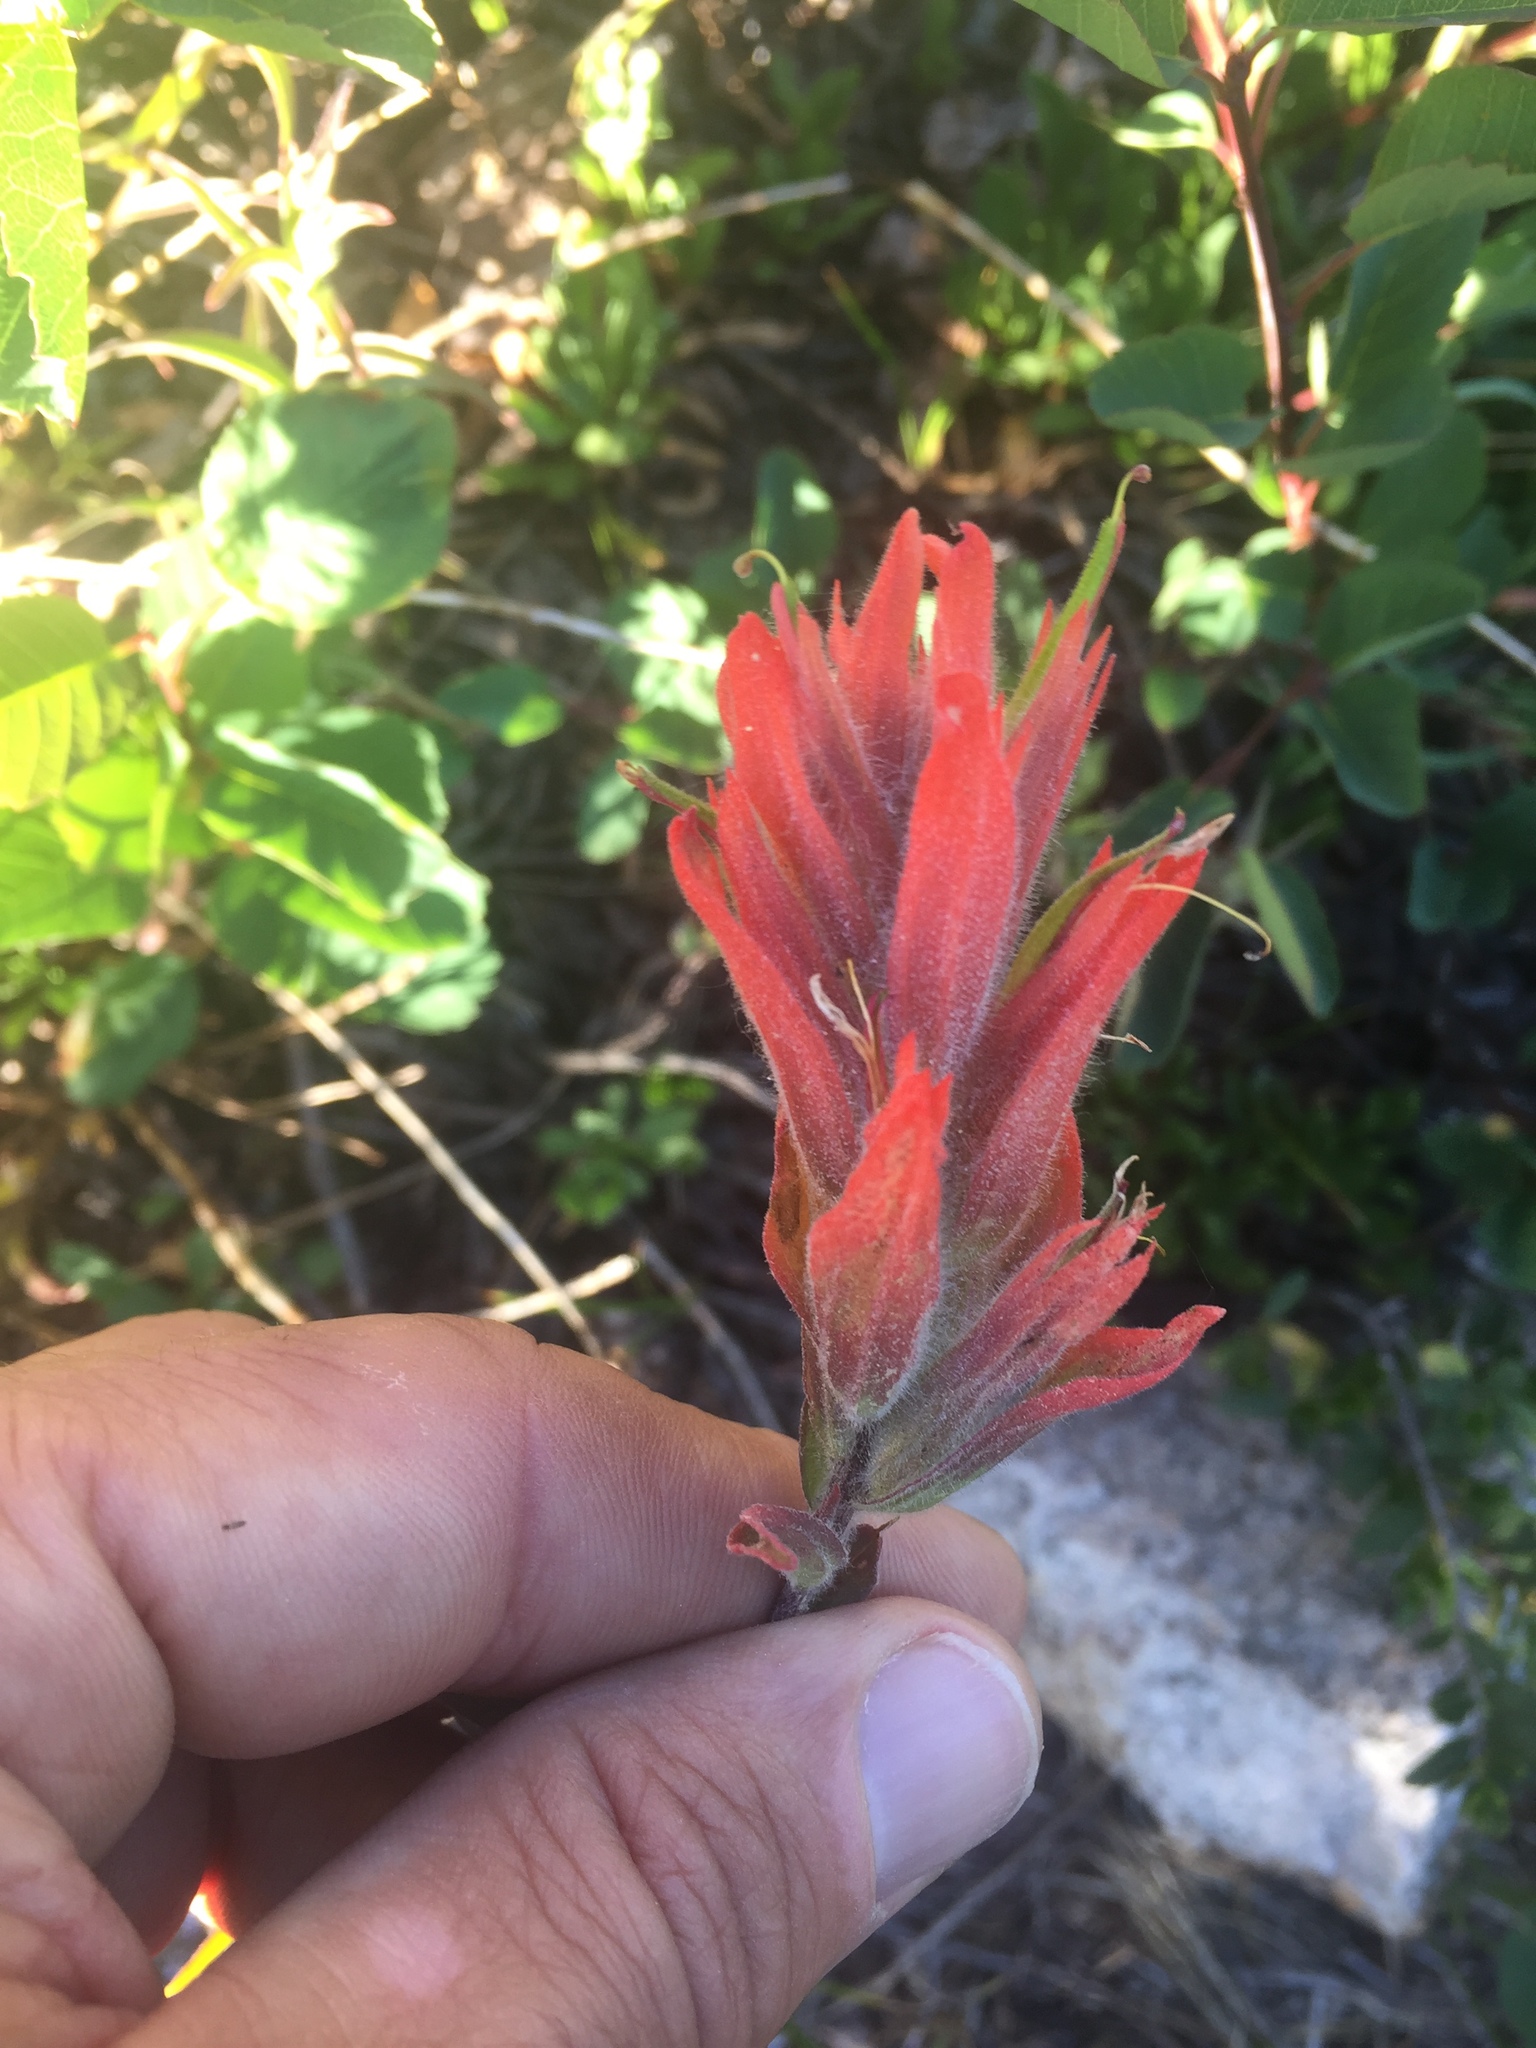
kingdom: Plantae
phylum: Tracheophyta
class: Magnoliopsida
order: Lamiales
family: Orobanchaceae
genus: Castilleja
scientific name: Castilleja miniata
